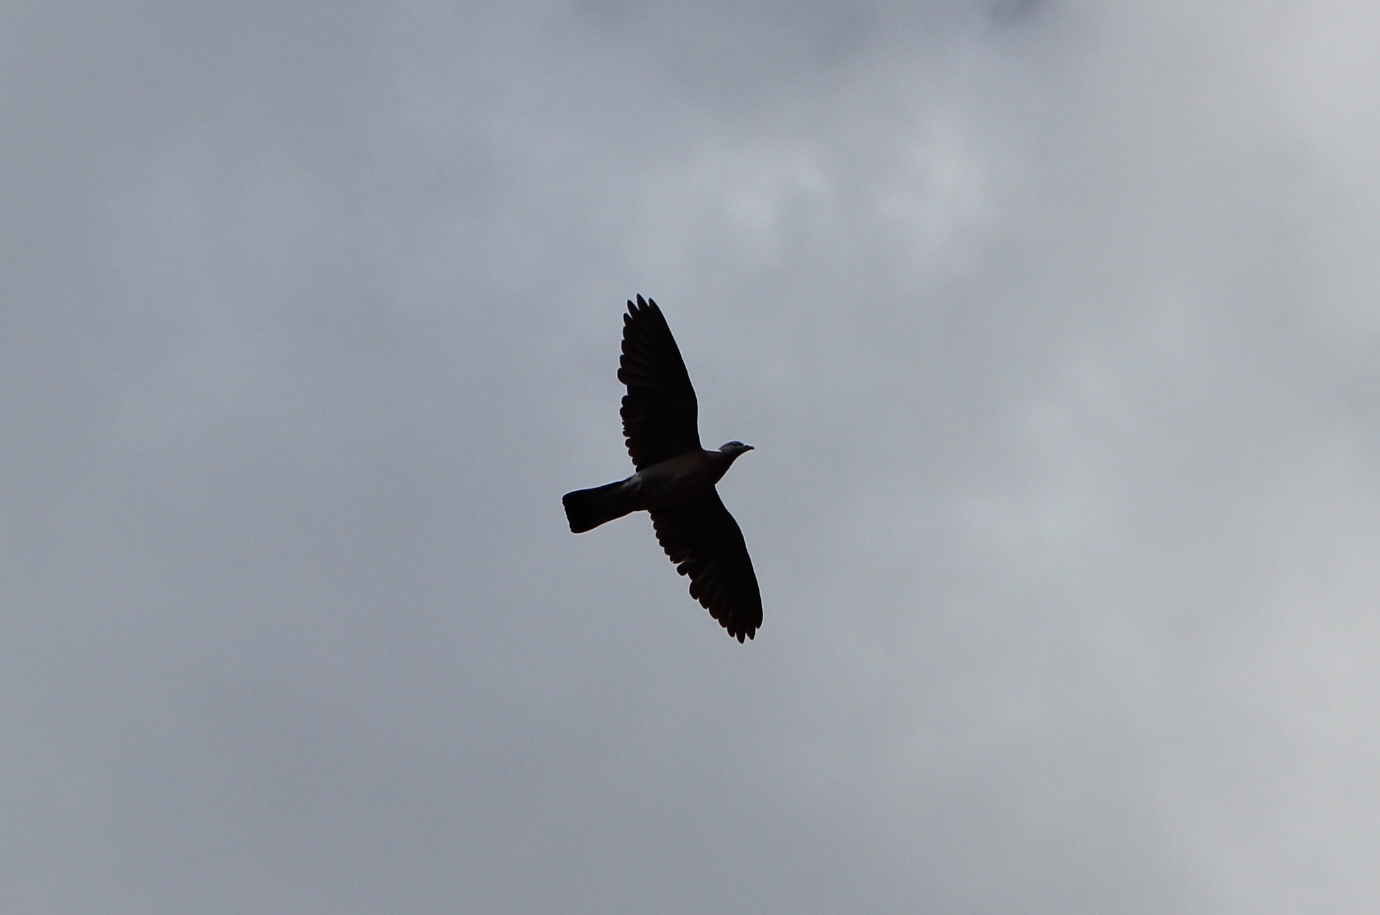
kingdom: Animalia
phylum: Chordata
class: Aves
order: Columbiformes
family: Columbidae
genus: Columba
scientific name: Columba palumbus
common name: Common wood pigeon
